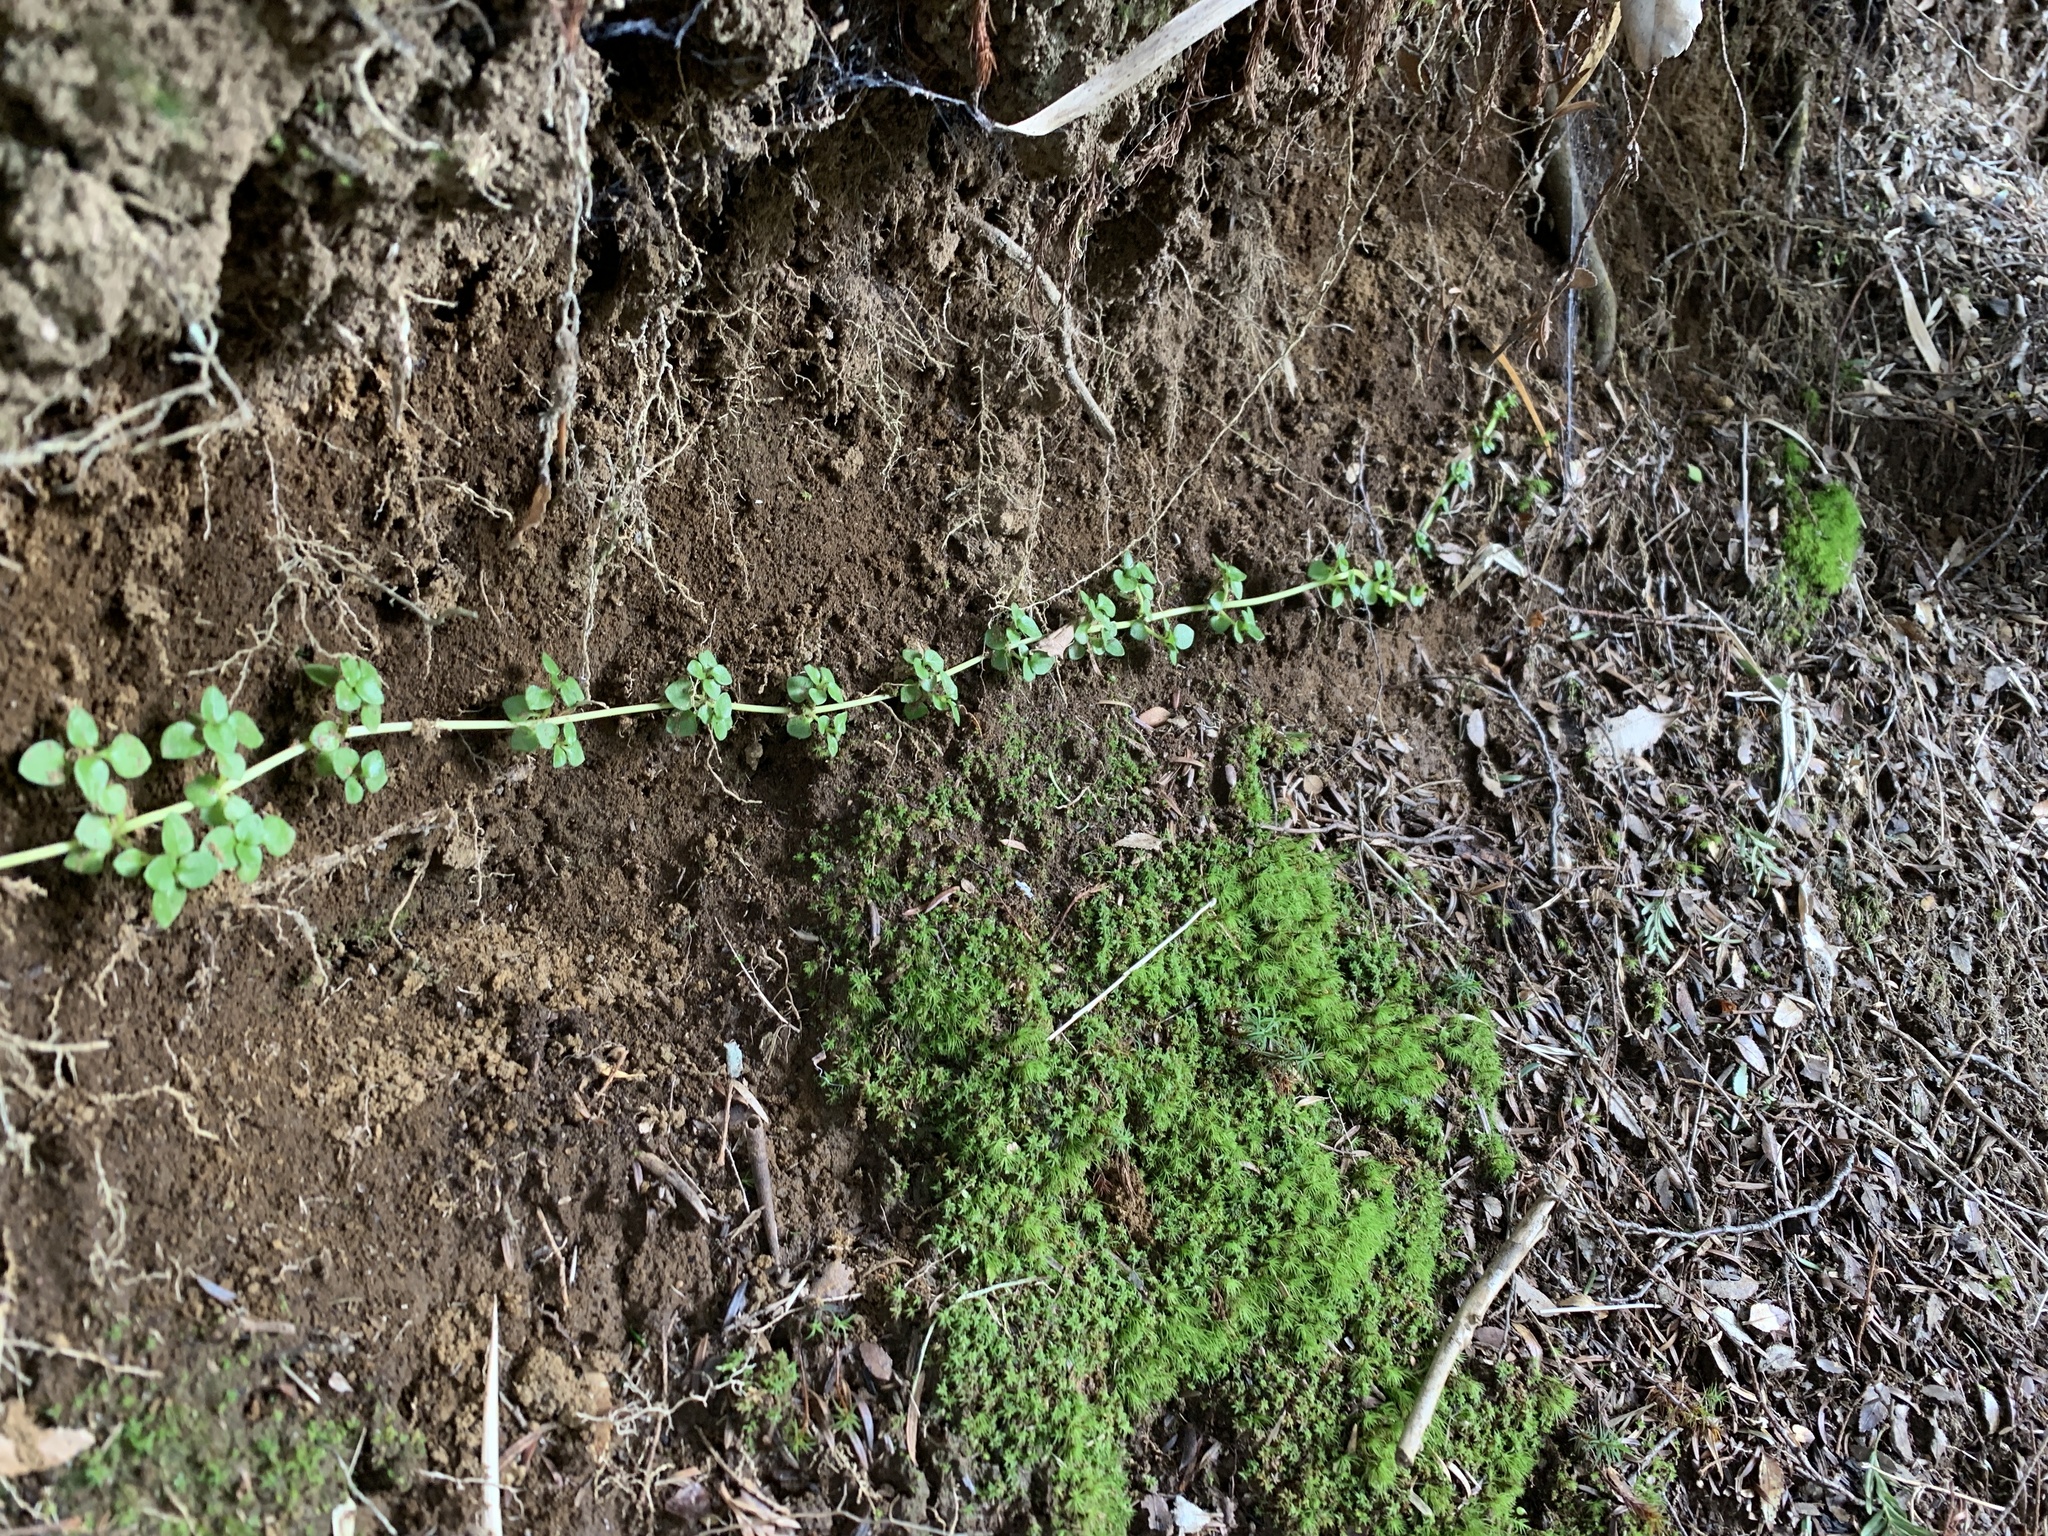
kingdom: Plantae
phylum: Tracheophyta
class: Magnoliopsida
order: Gentianales
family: Rubiaceae
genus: Nertera
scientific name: Nertera granadensis
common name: Beadplant
